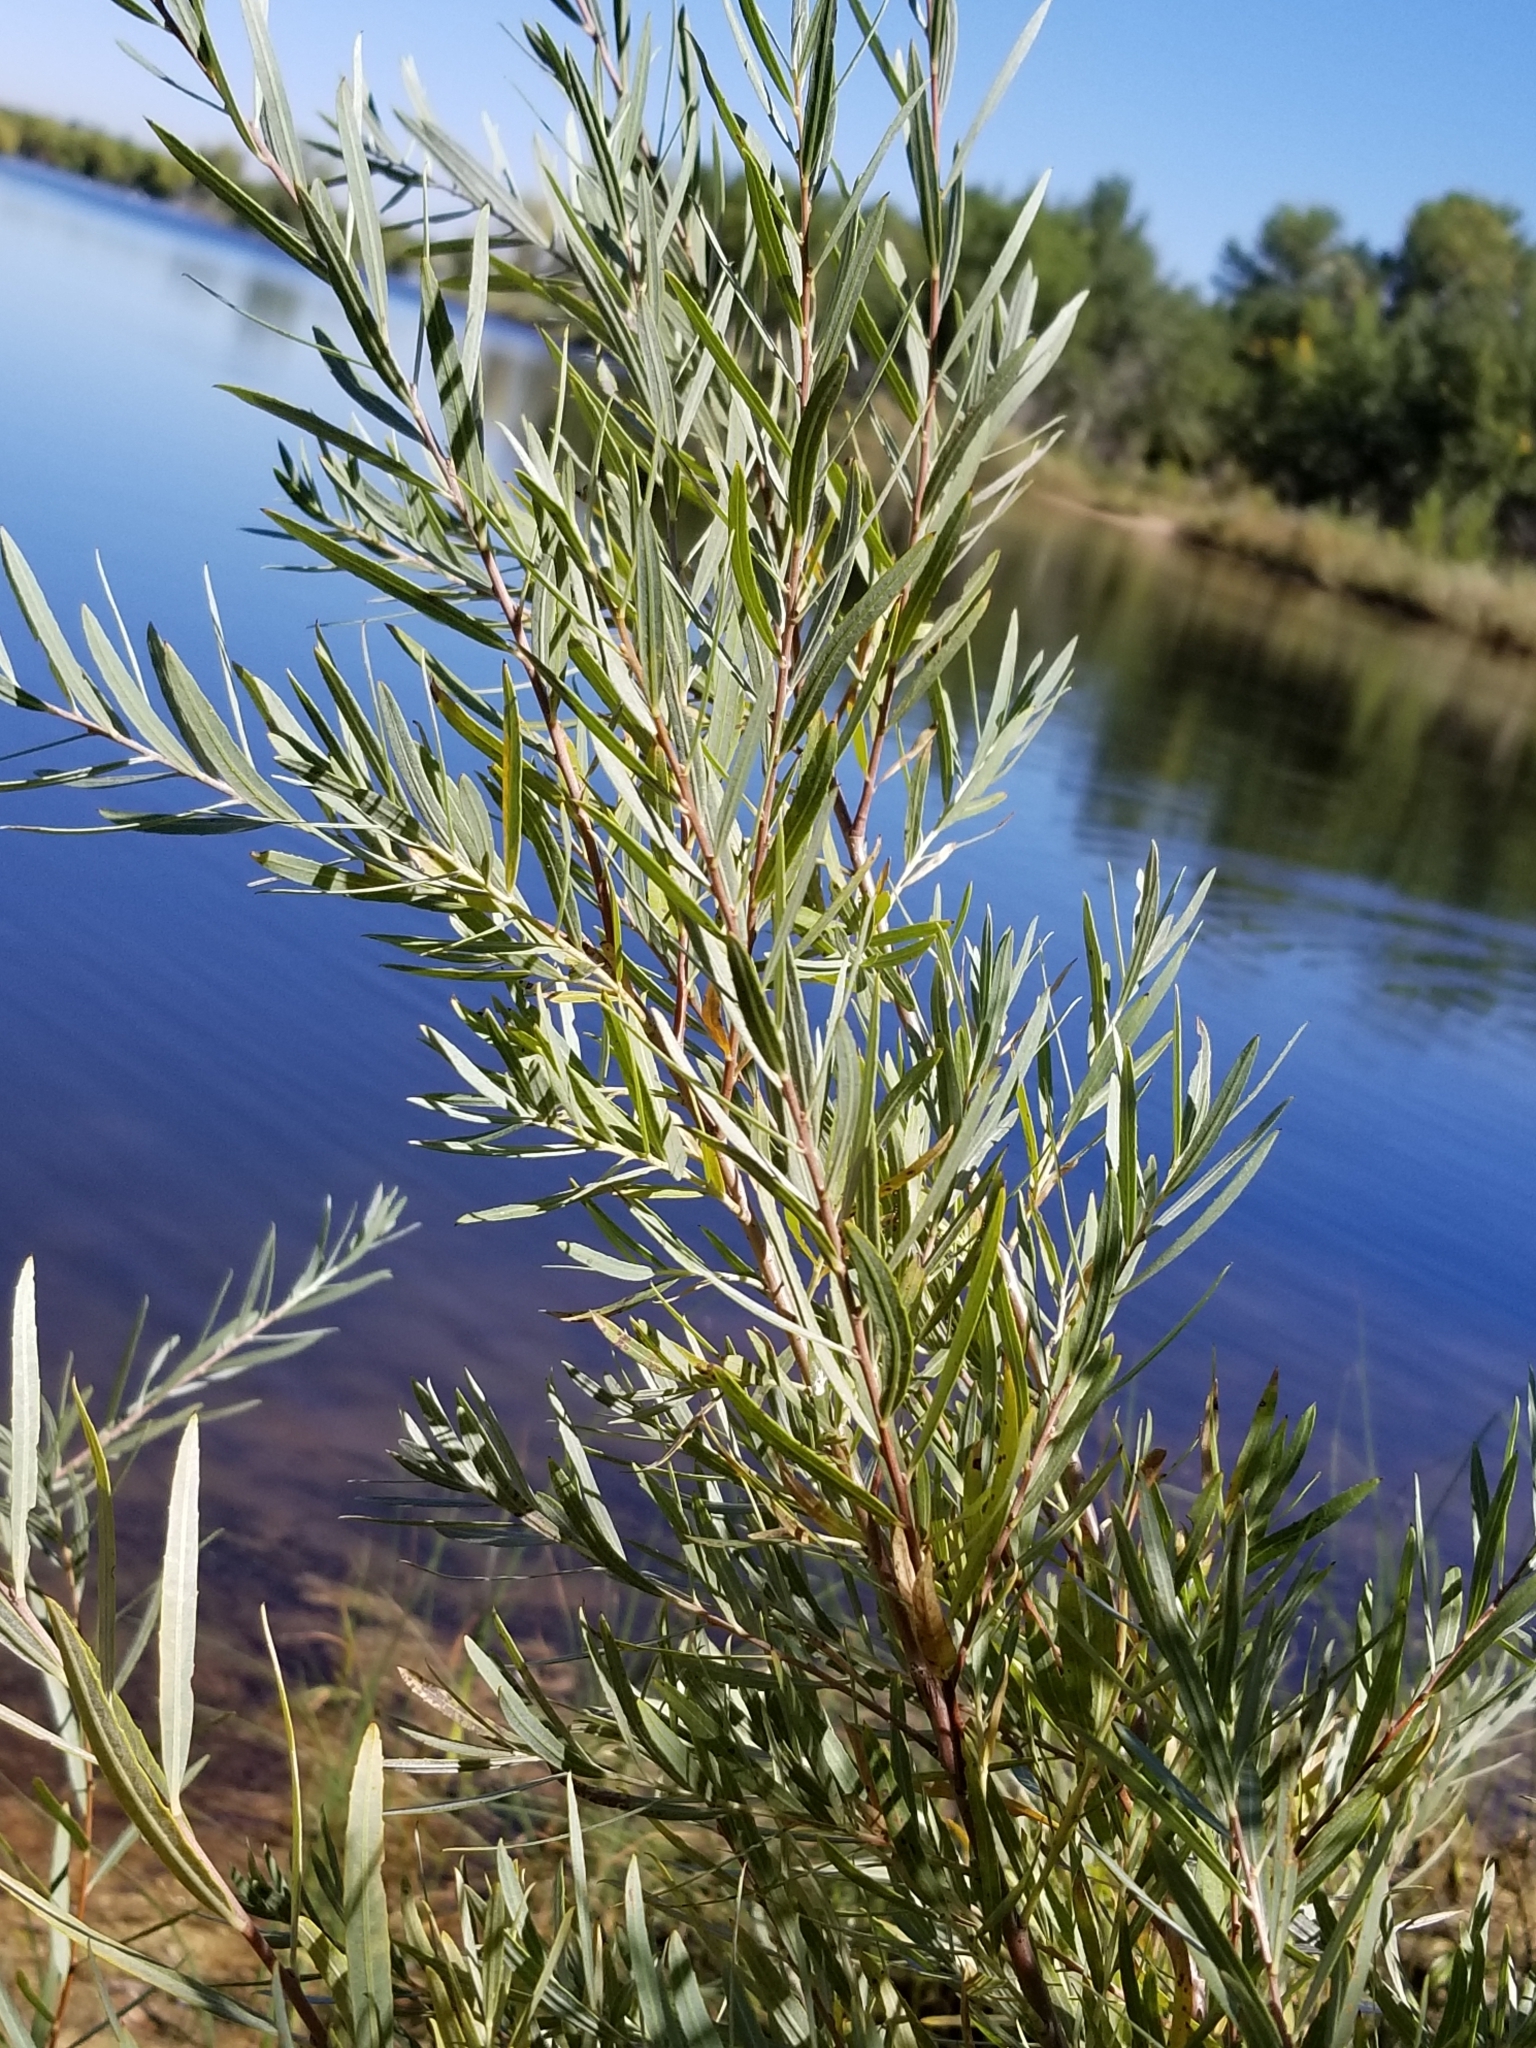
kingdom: Plantae
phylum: Tracheophyta
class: Magnoliopsida
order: Malpighiales
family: Salicaceae
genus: Salix
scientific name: Salix exigua
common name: Coyote willow
